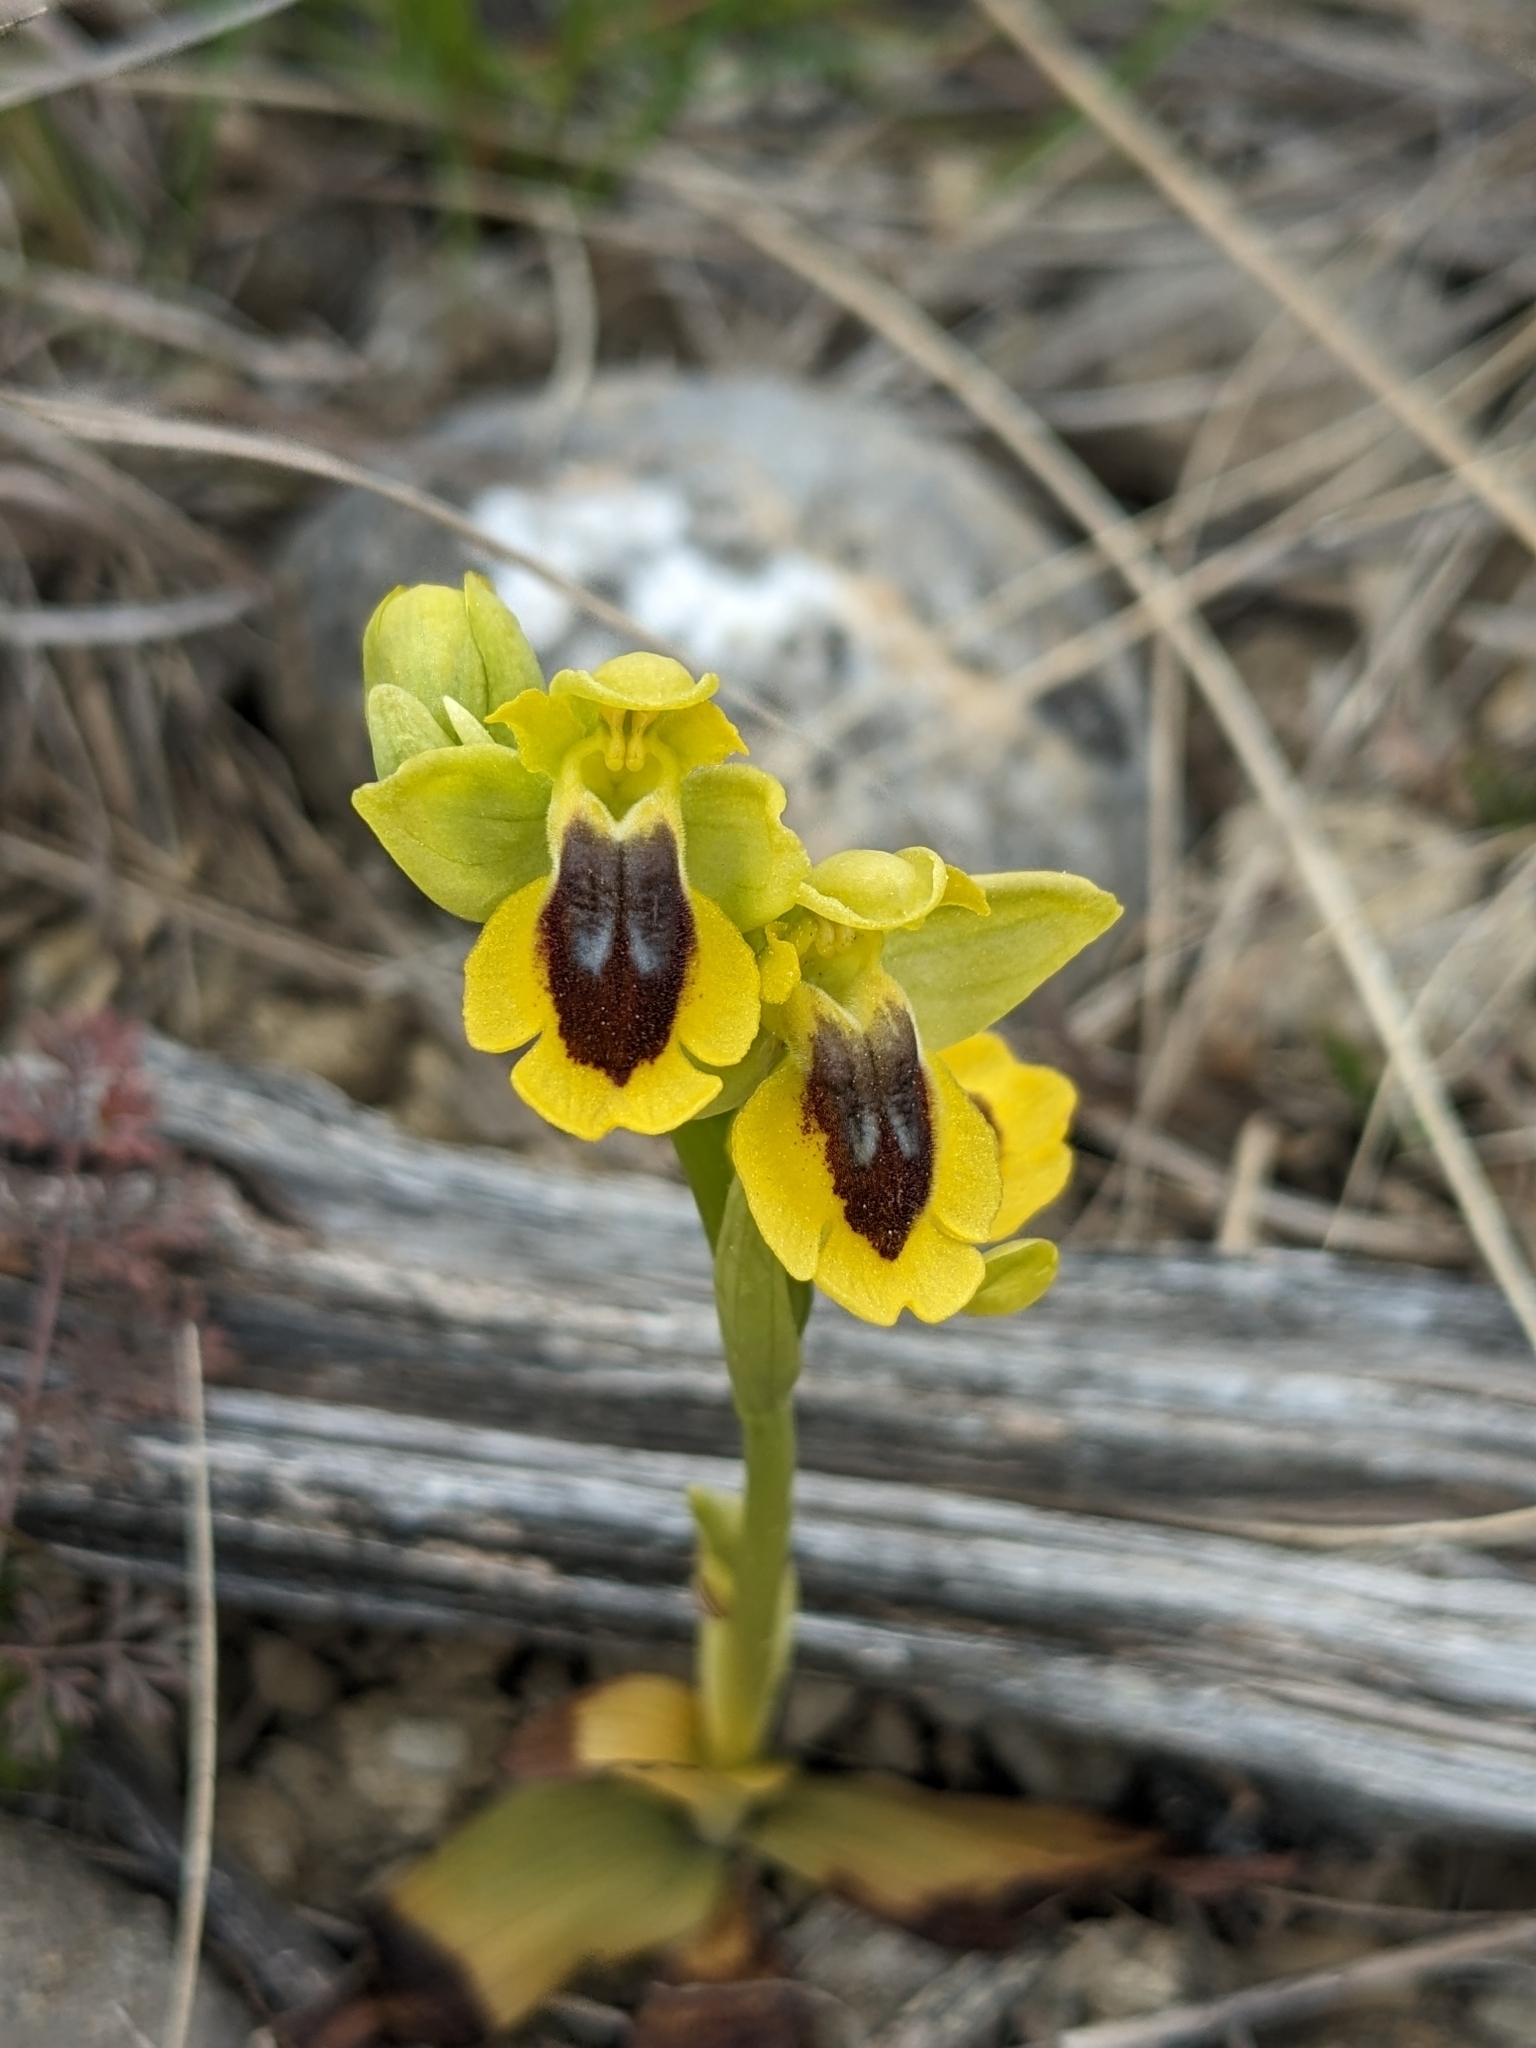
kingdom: Plantae
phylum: Tracheophyta
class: Liliopsida
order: Asparagales
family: Orchidaceae
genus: Ophrys
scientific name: Ophrys lutea
